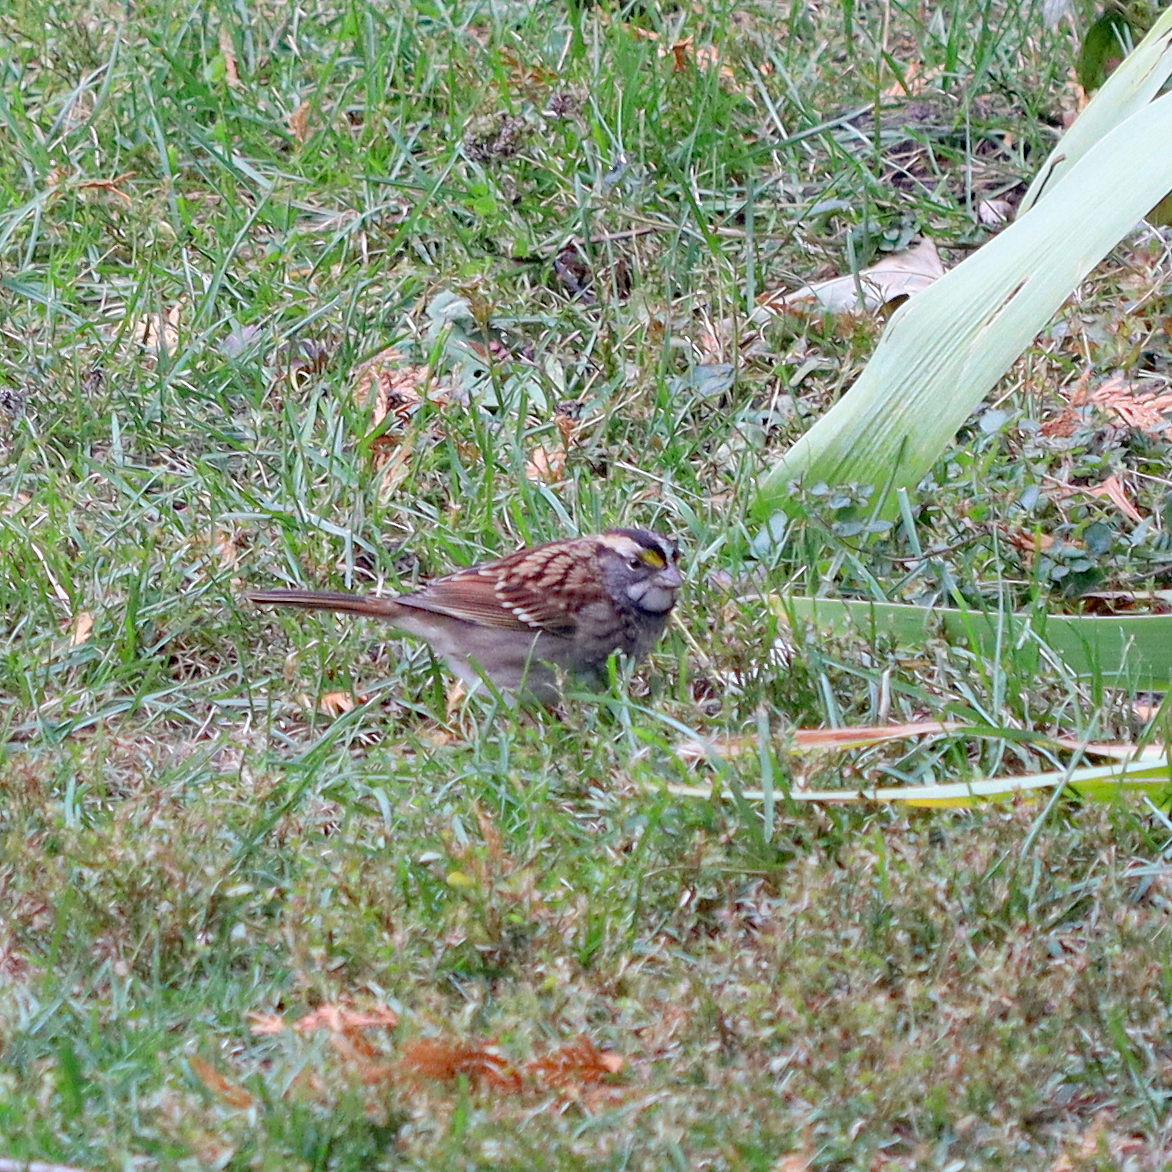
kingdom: Animalia
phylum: Chordata
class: Aves
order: Passeriformes
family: Passerellidae
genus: Zonotrichia
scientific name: Zonotrichia albicollis
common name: White-throated sparrow
